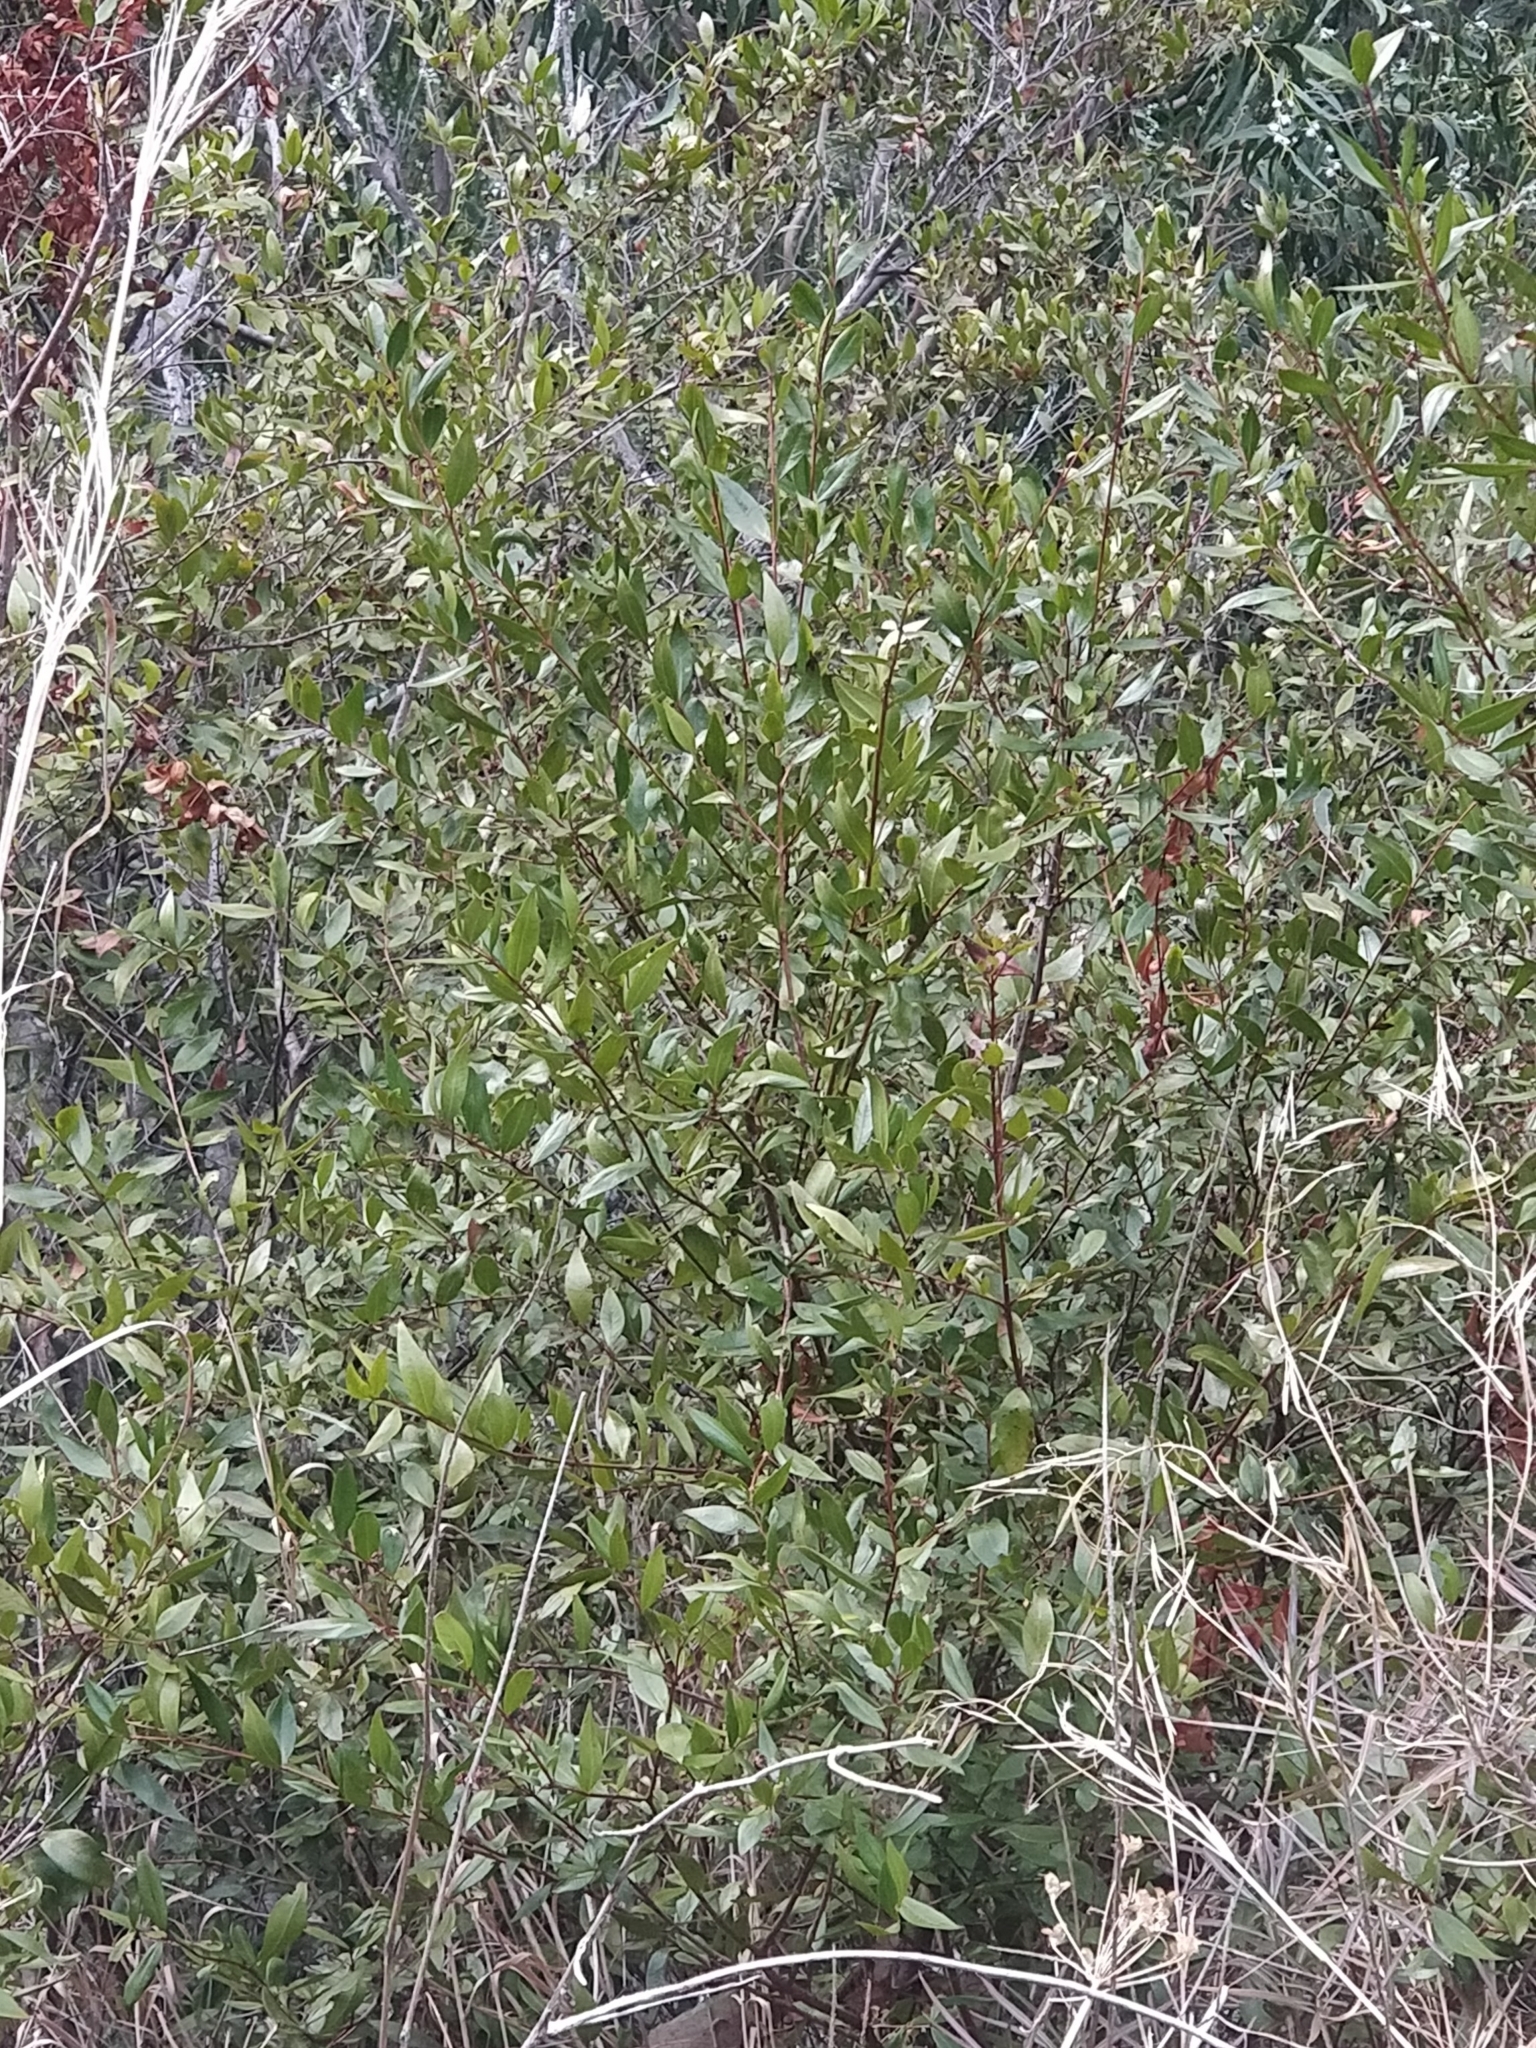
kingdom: Plantae
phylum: Tracheophyta
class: Magnoliopsida
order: Myrtales
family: Myrtaceae
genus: Myrtus
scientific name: Myrtus communis
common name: Myrtle
